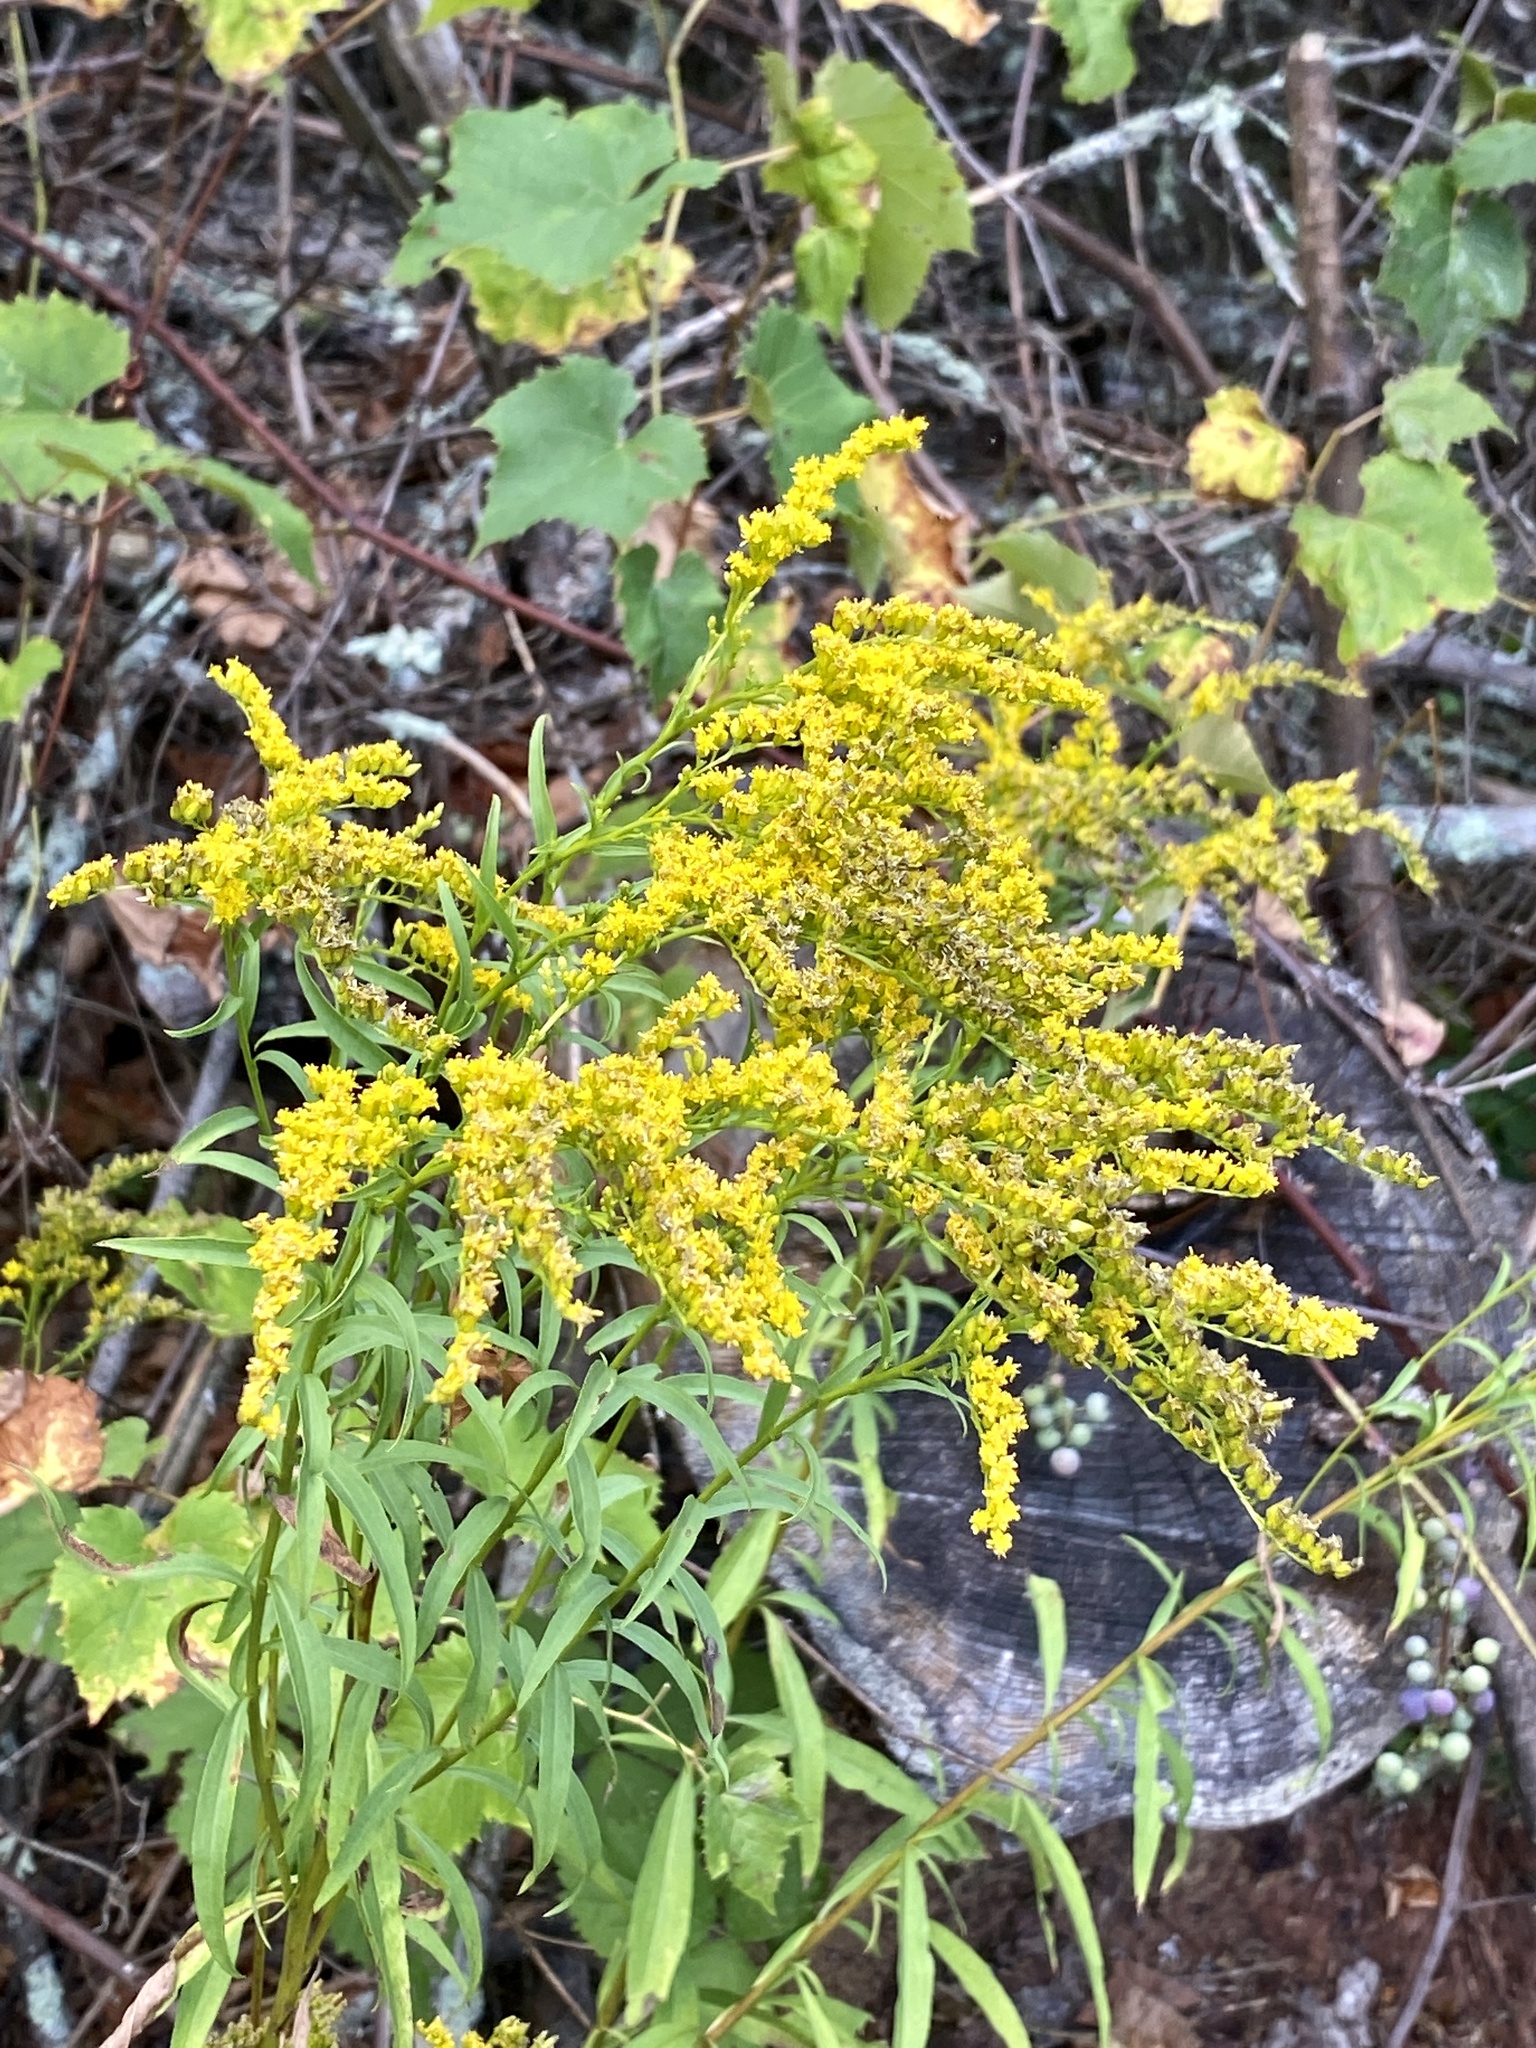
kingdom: Plantae
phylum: Tracheophyta
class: Magnoliopsida
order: Asterales
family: Asteraceae
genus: Solidago
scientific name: Solidago juncea
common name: Early goldenrod
